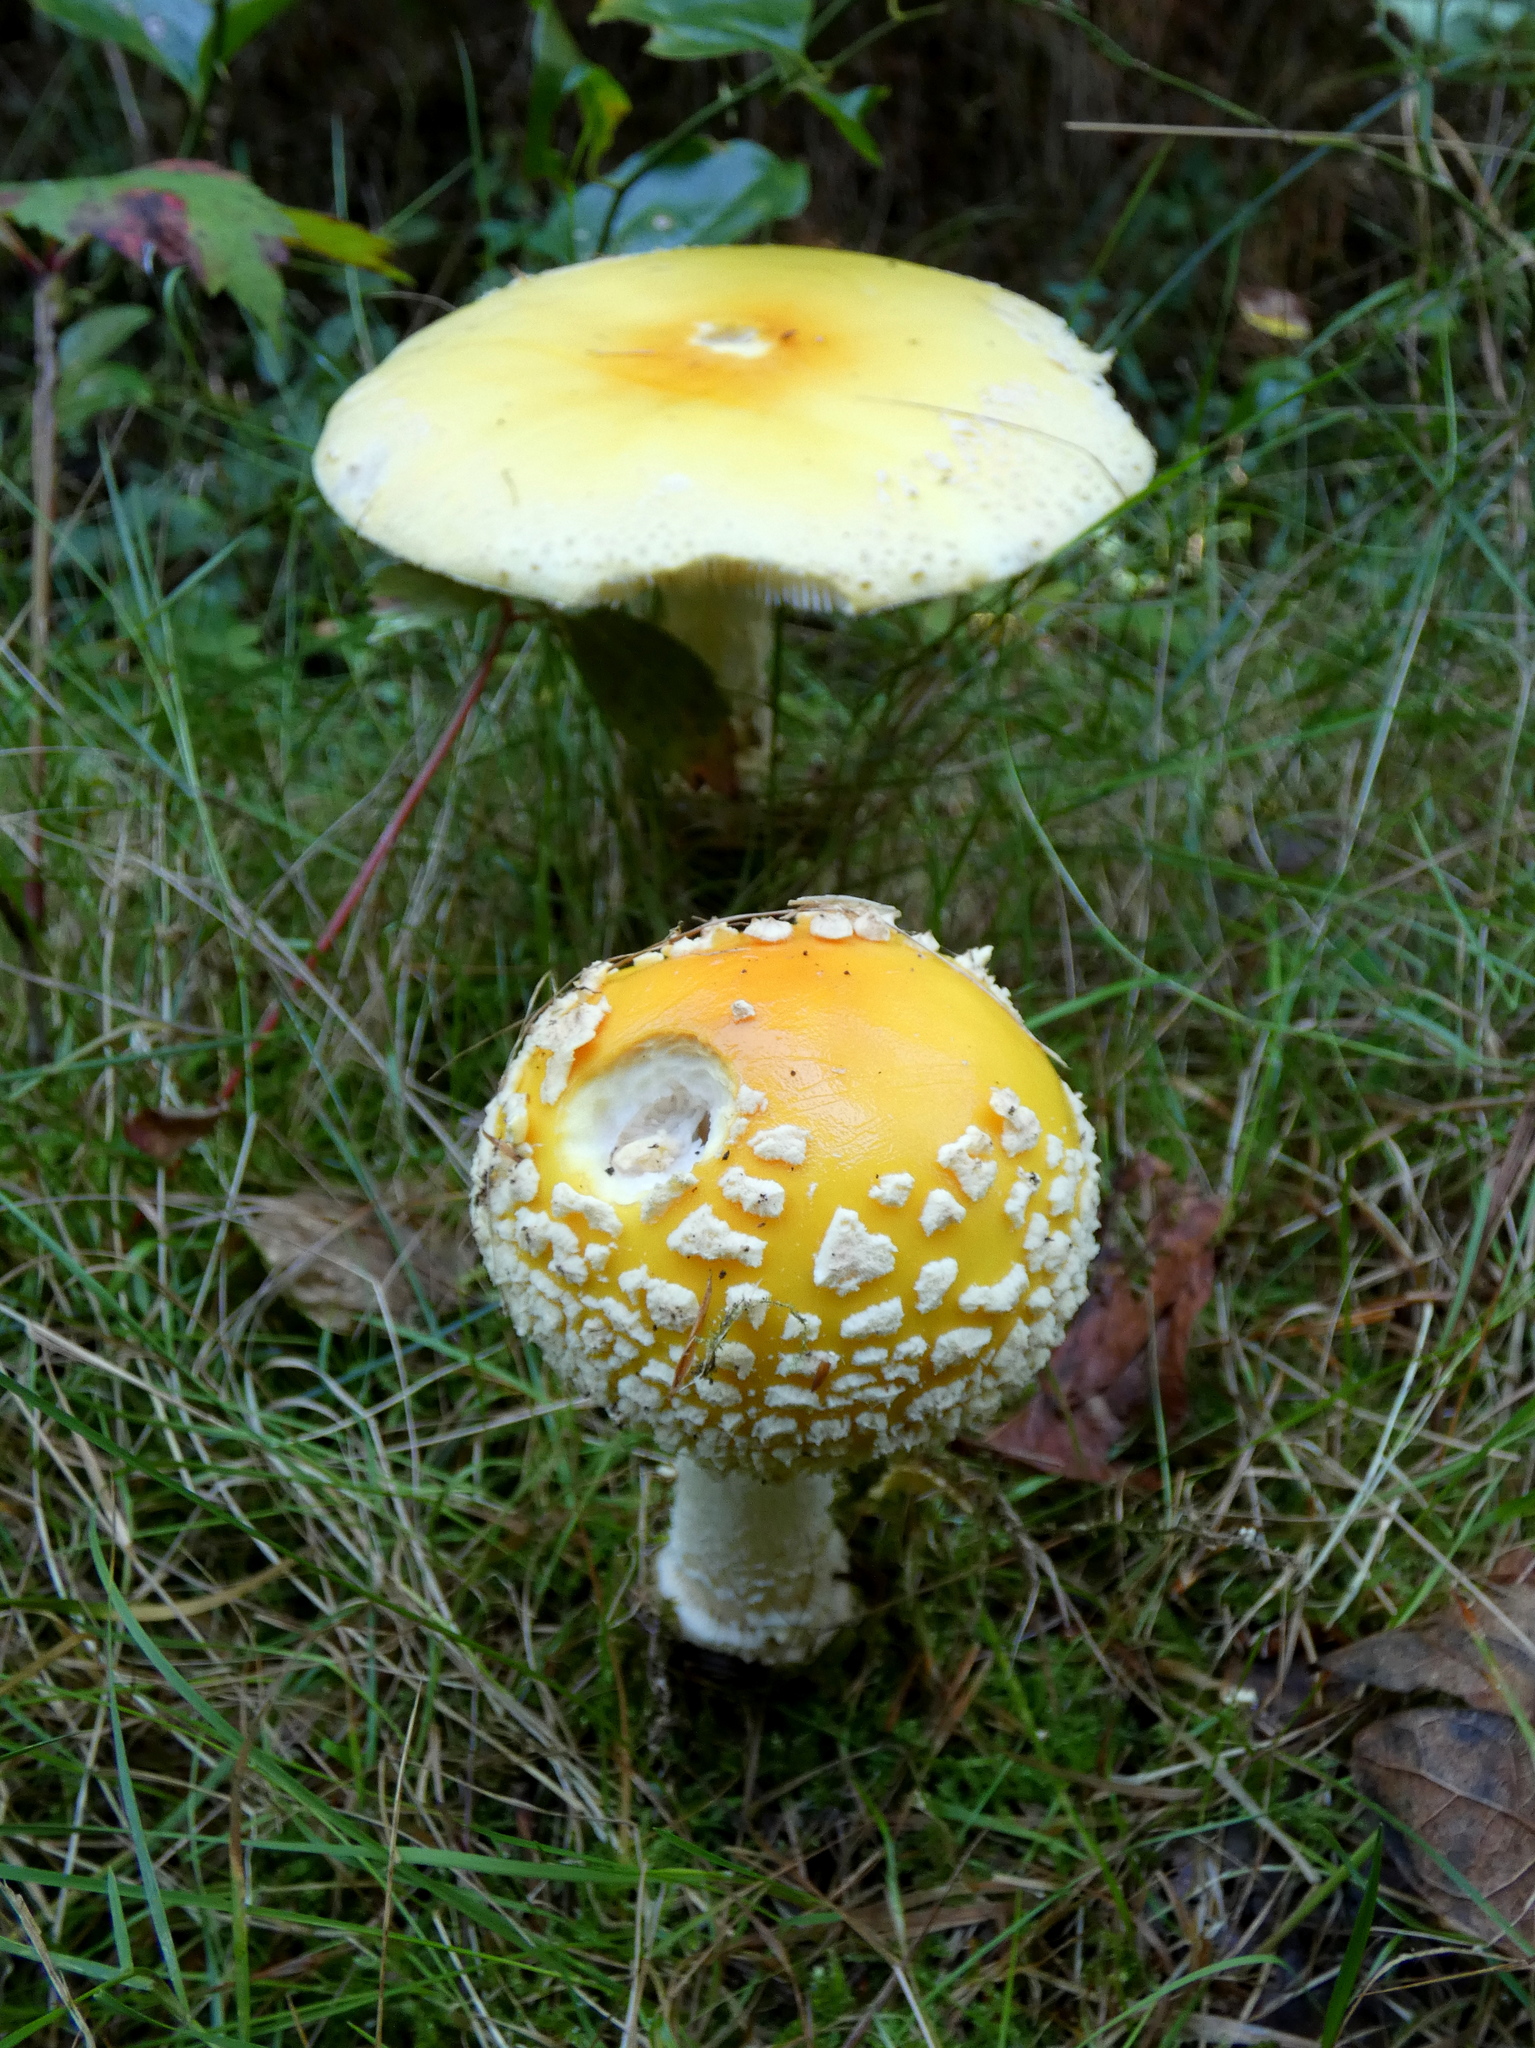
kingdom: Fungi
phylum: Basidiomycota
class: Agaricomycetes
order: Agaricales
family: Amanitaceae
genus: Amanita
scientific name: Amanita muscaria
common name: Fly agaric
